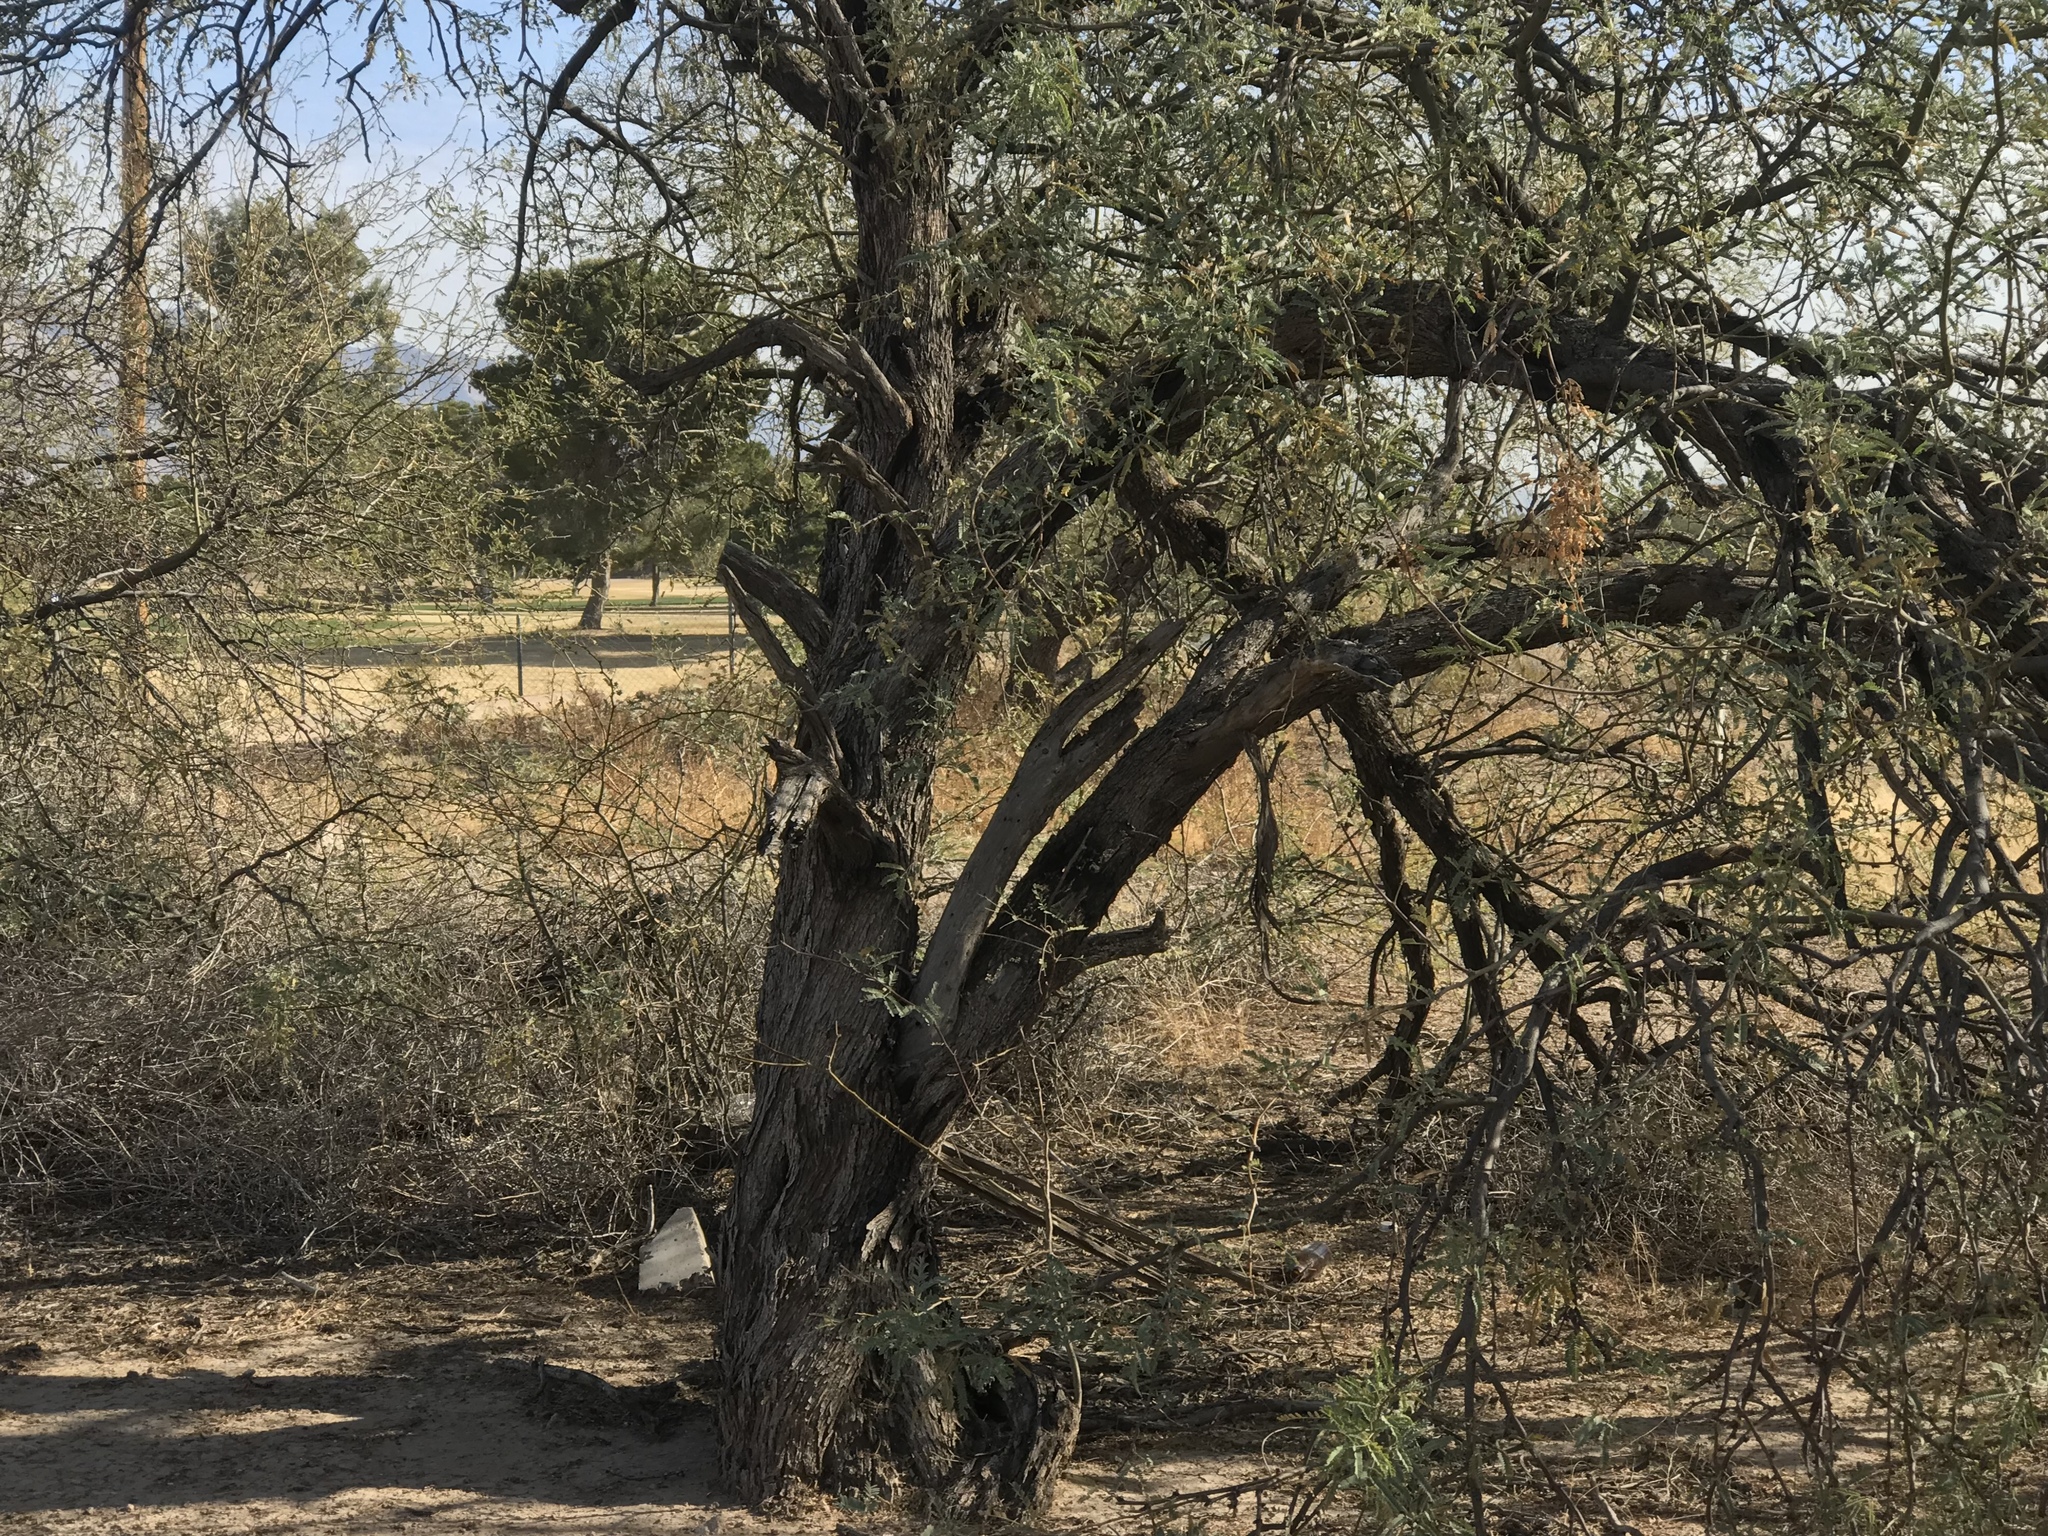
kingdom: Plantae
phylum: Tracheophyta
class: Magnoliopsida
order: Fabales
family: Fabaceae
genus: Prosopis
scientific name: Prosopis velutina
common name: Velvet mesquite
